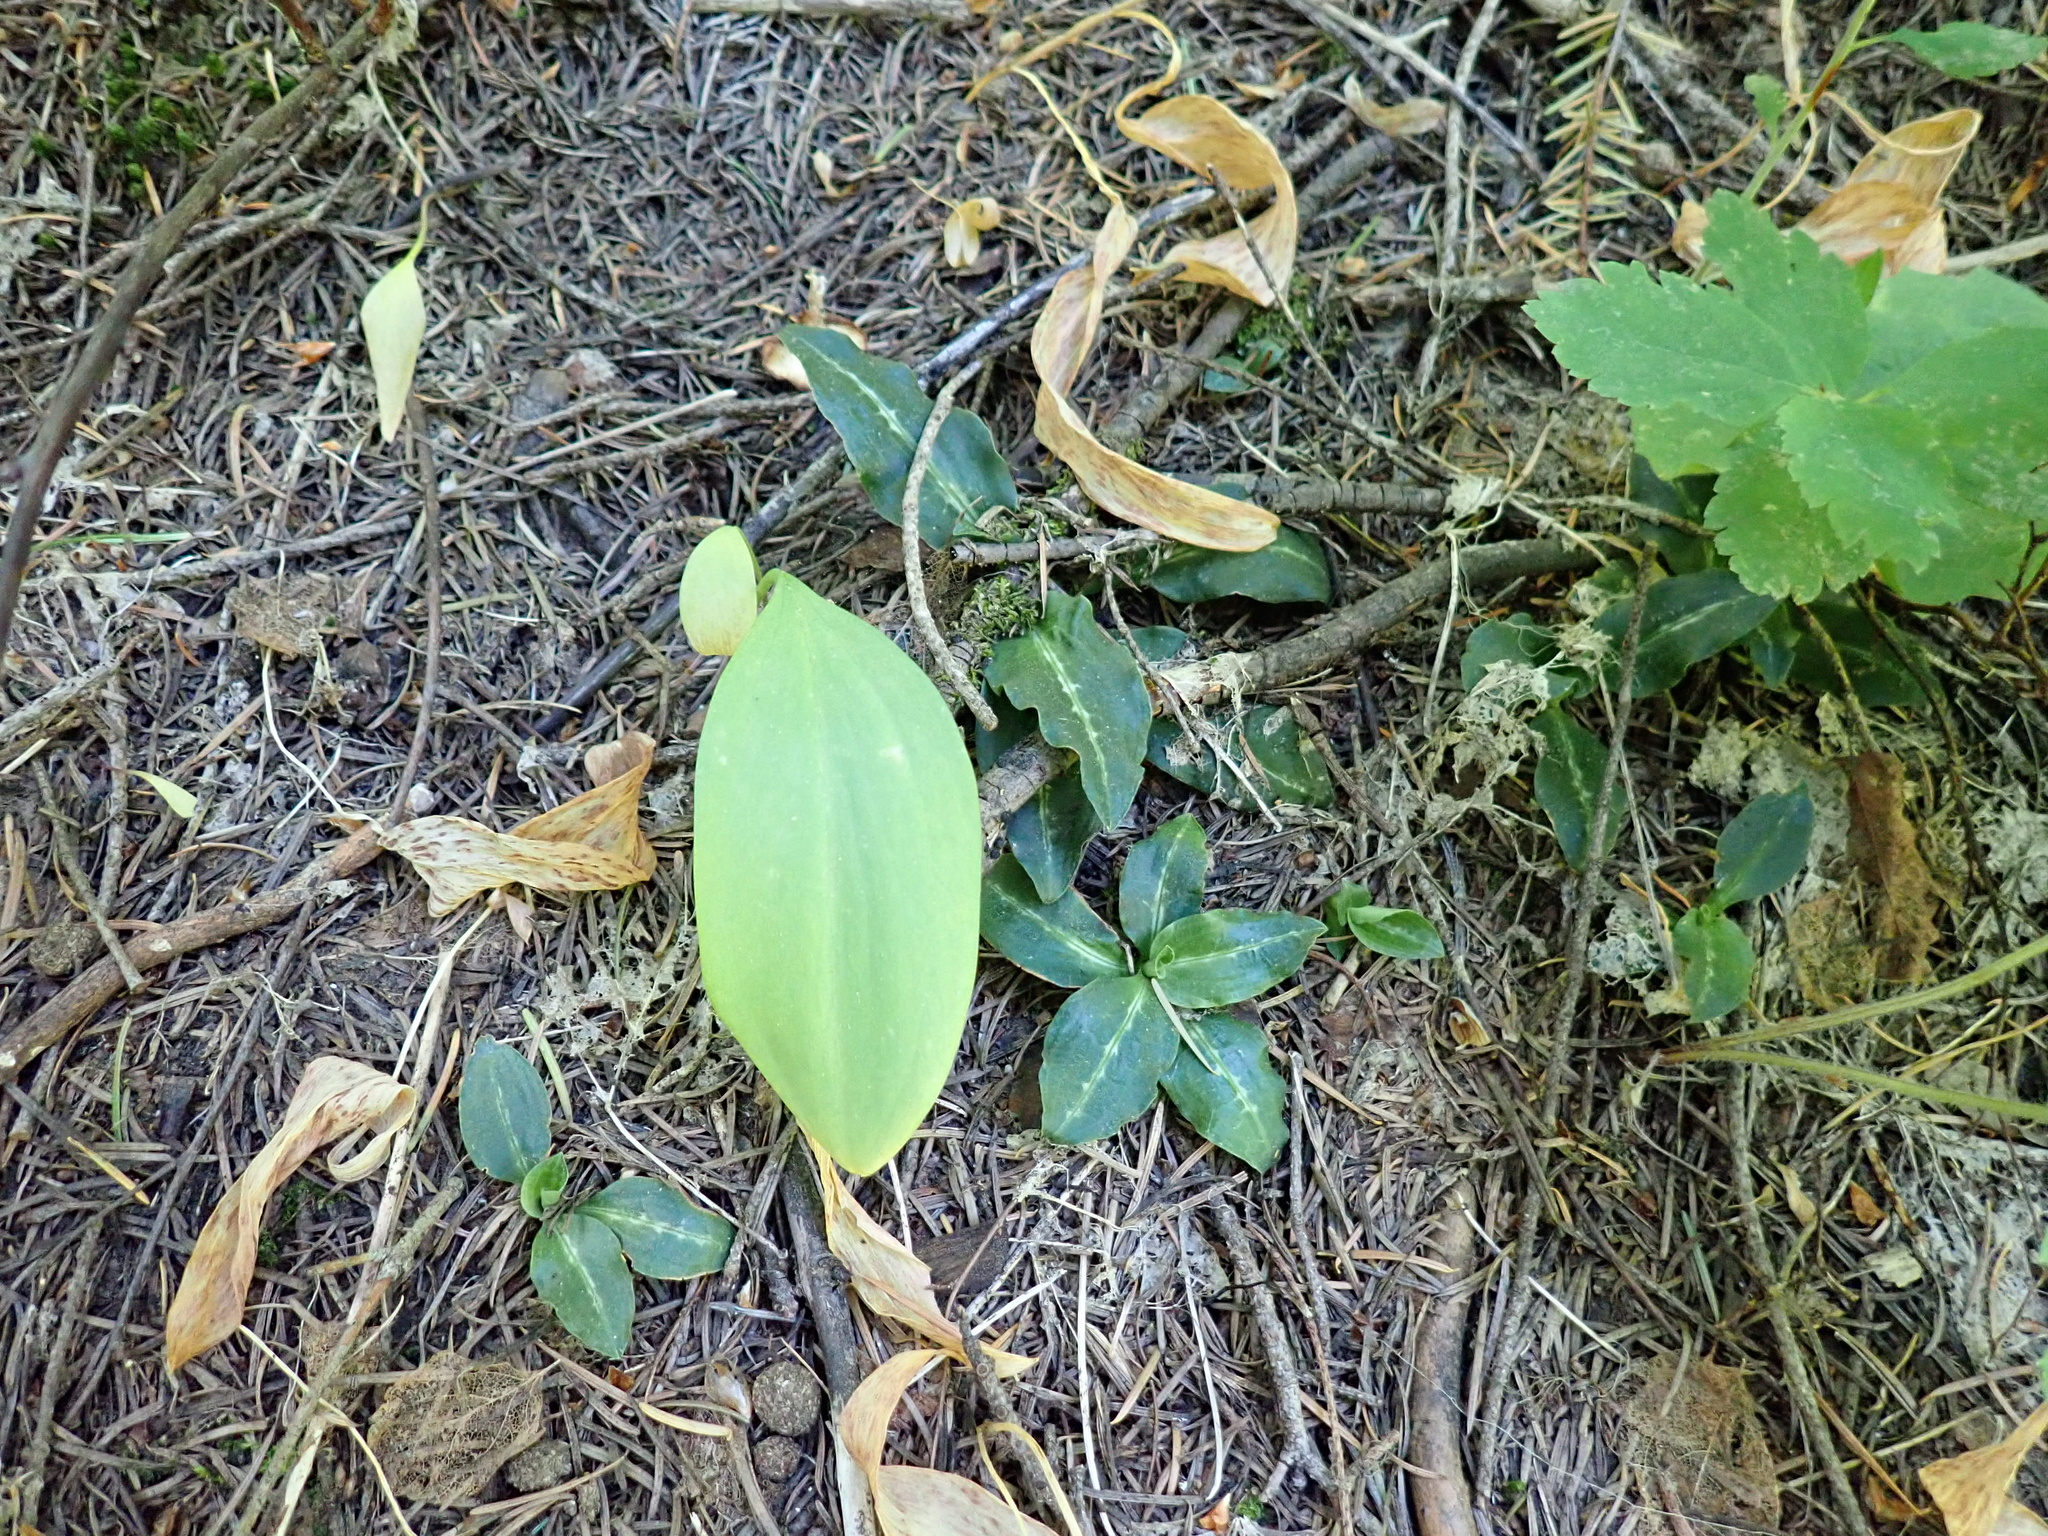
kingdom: Plantae
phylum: Tracheophyta
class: Liliopsida
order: Asparagales
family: Orchidaceae
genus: Goodyera
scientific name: Goodyera oblongifolia
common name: Giant rattlesnake-plantain
